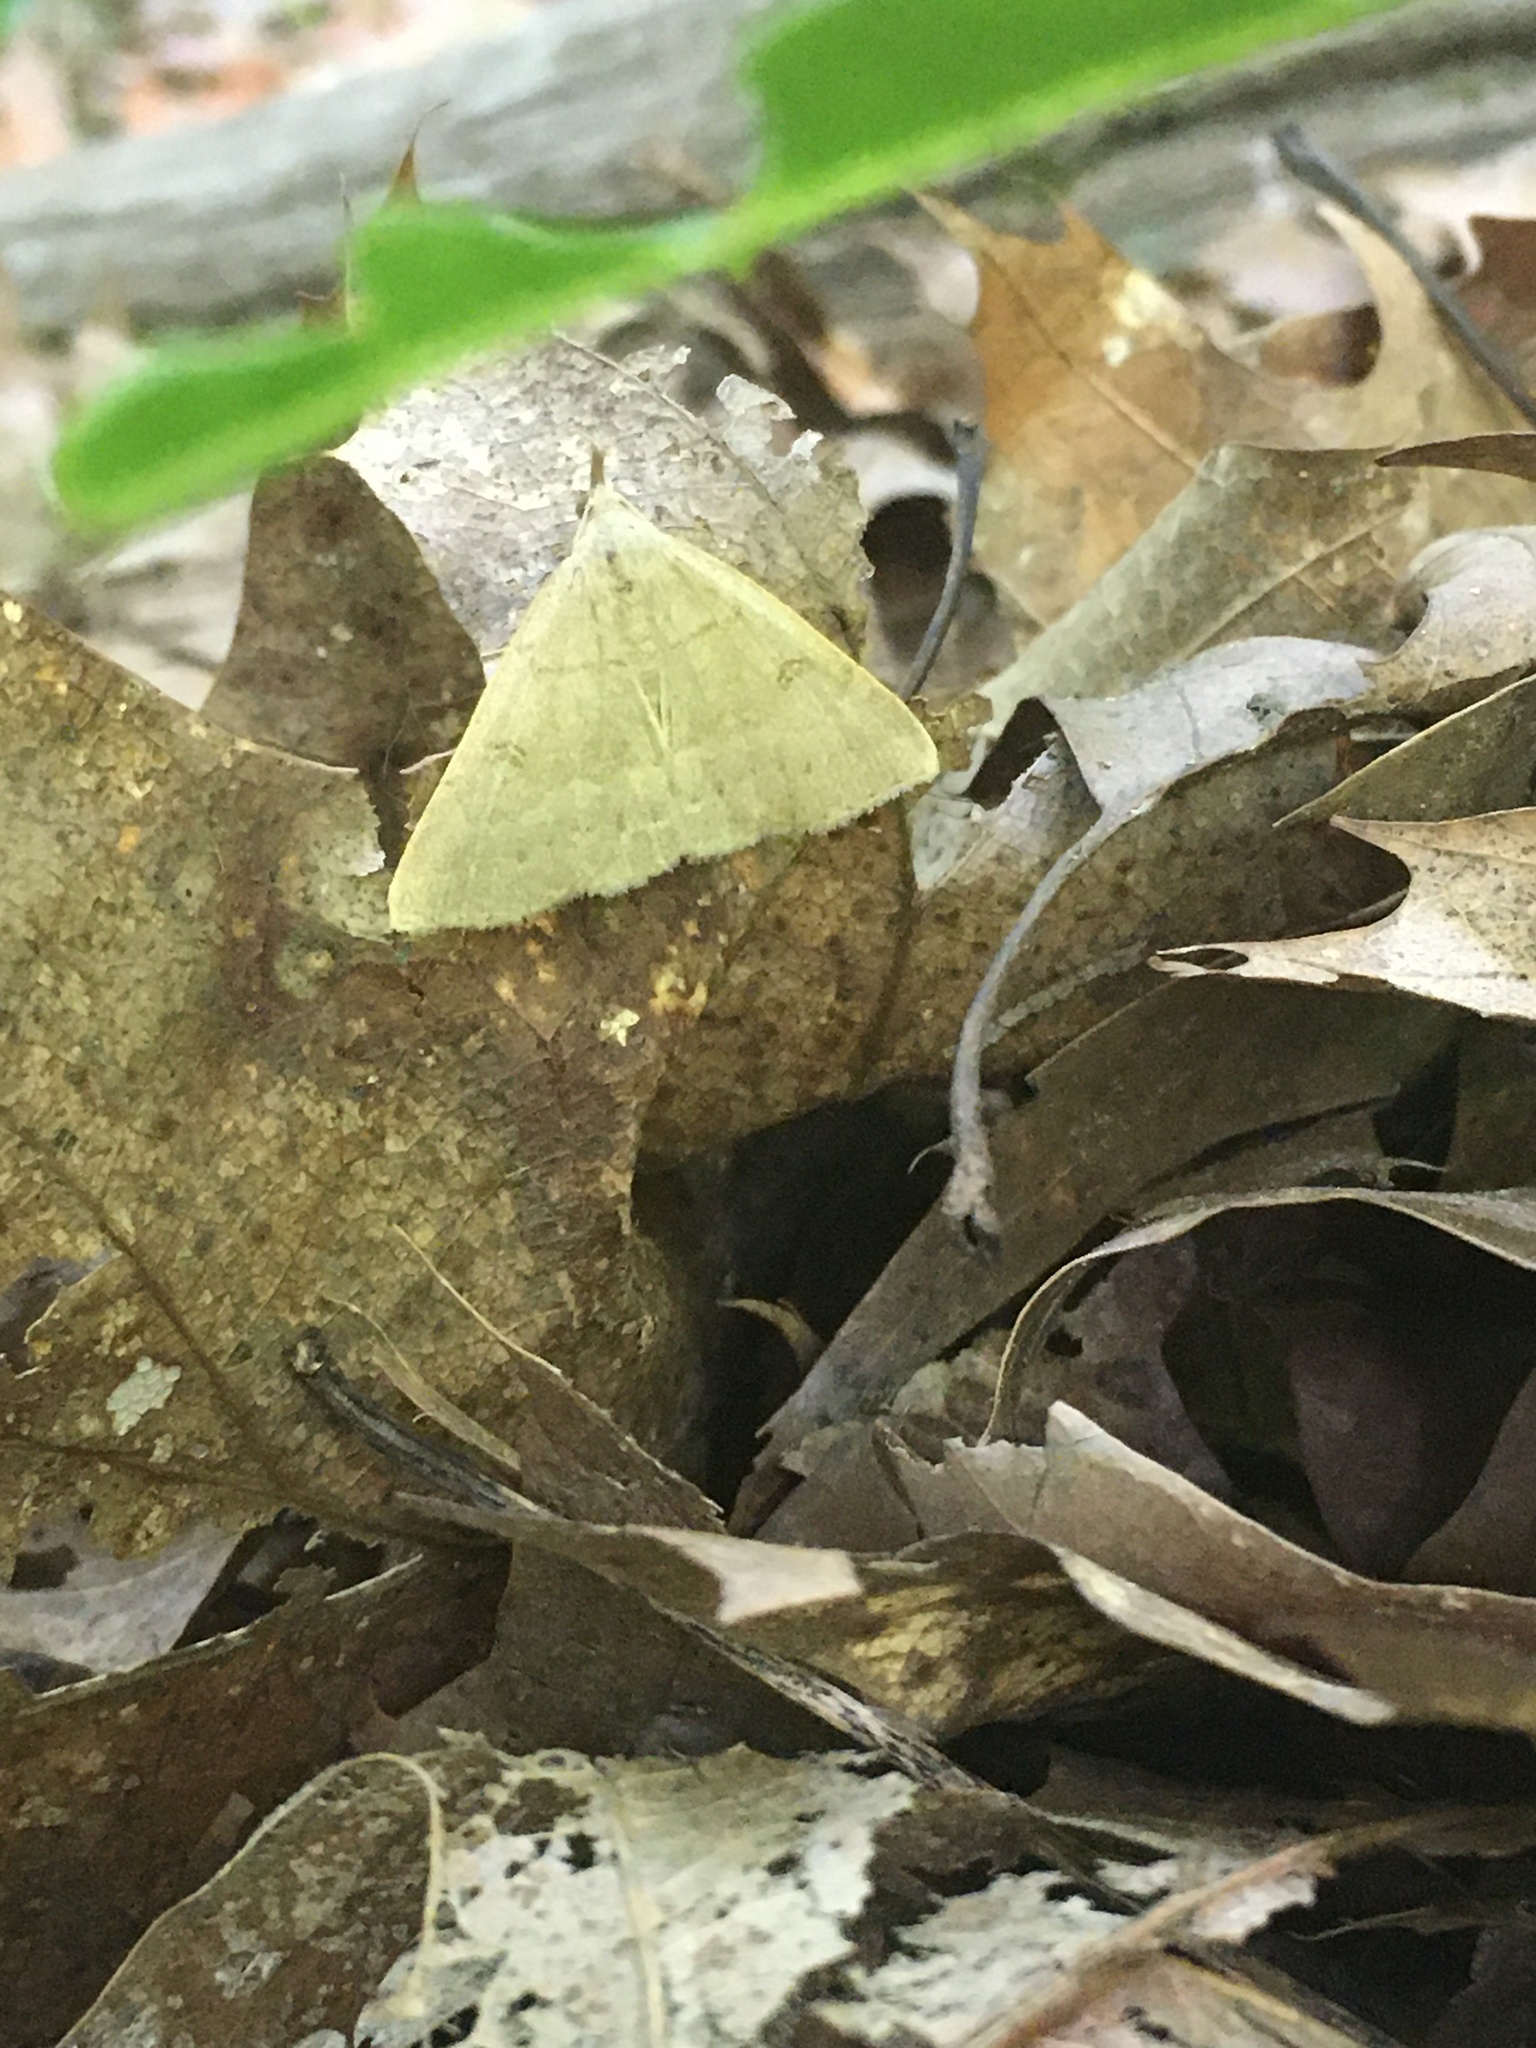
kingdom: Animalia
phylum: Arthropoda
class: Insecta
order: Lepidoptera
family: Erebidae
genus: Macrochilo
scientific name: Macrochilo morbidalis
